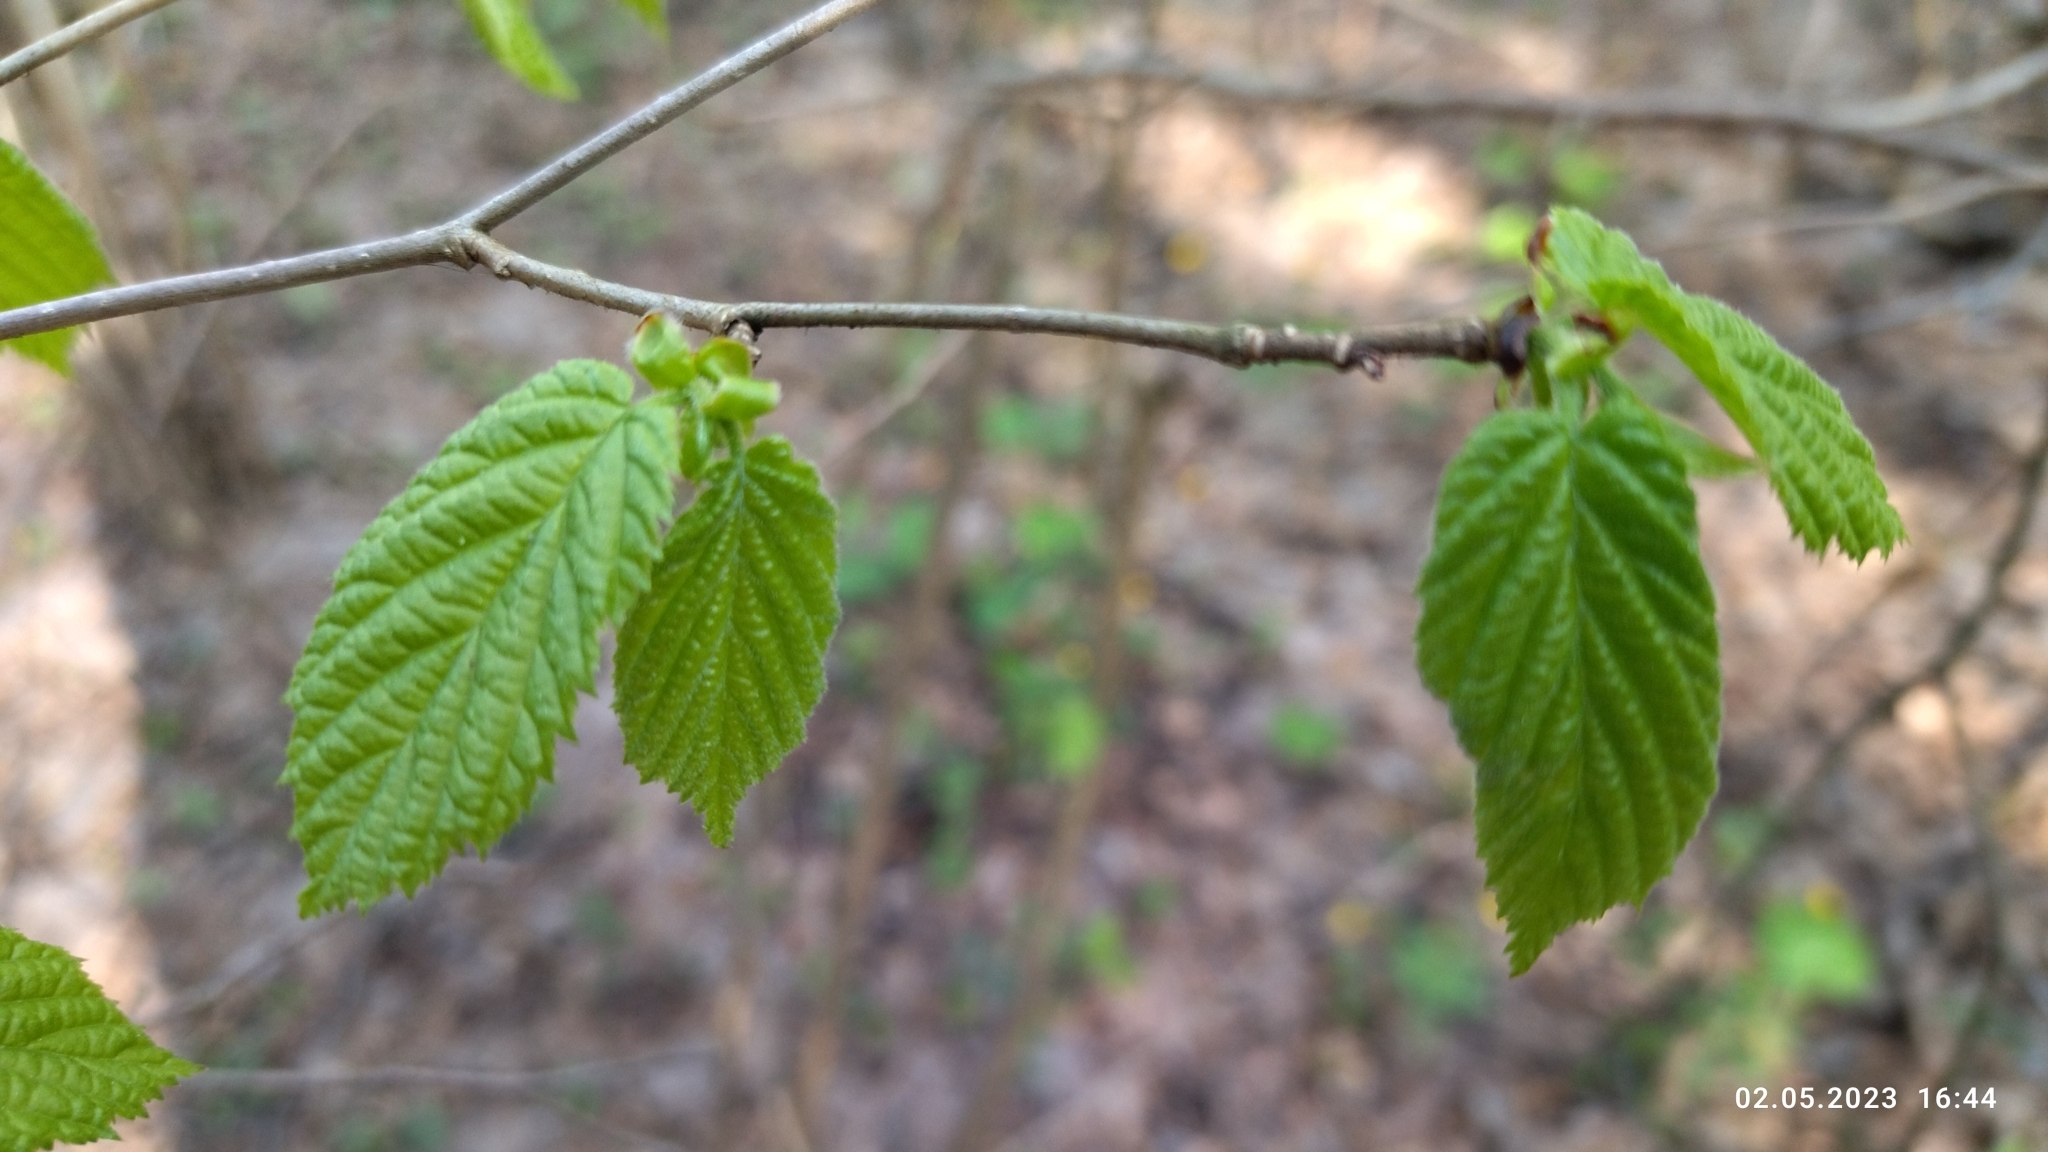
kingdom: Plantae
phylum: Tracheophyta
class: Magnoliopsida
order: Fagales
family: Betulaceae
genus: Corylus
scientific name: Corylus avellana
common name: European hazel
